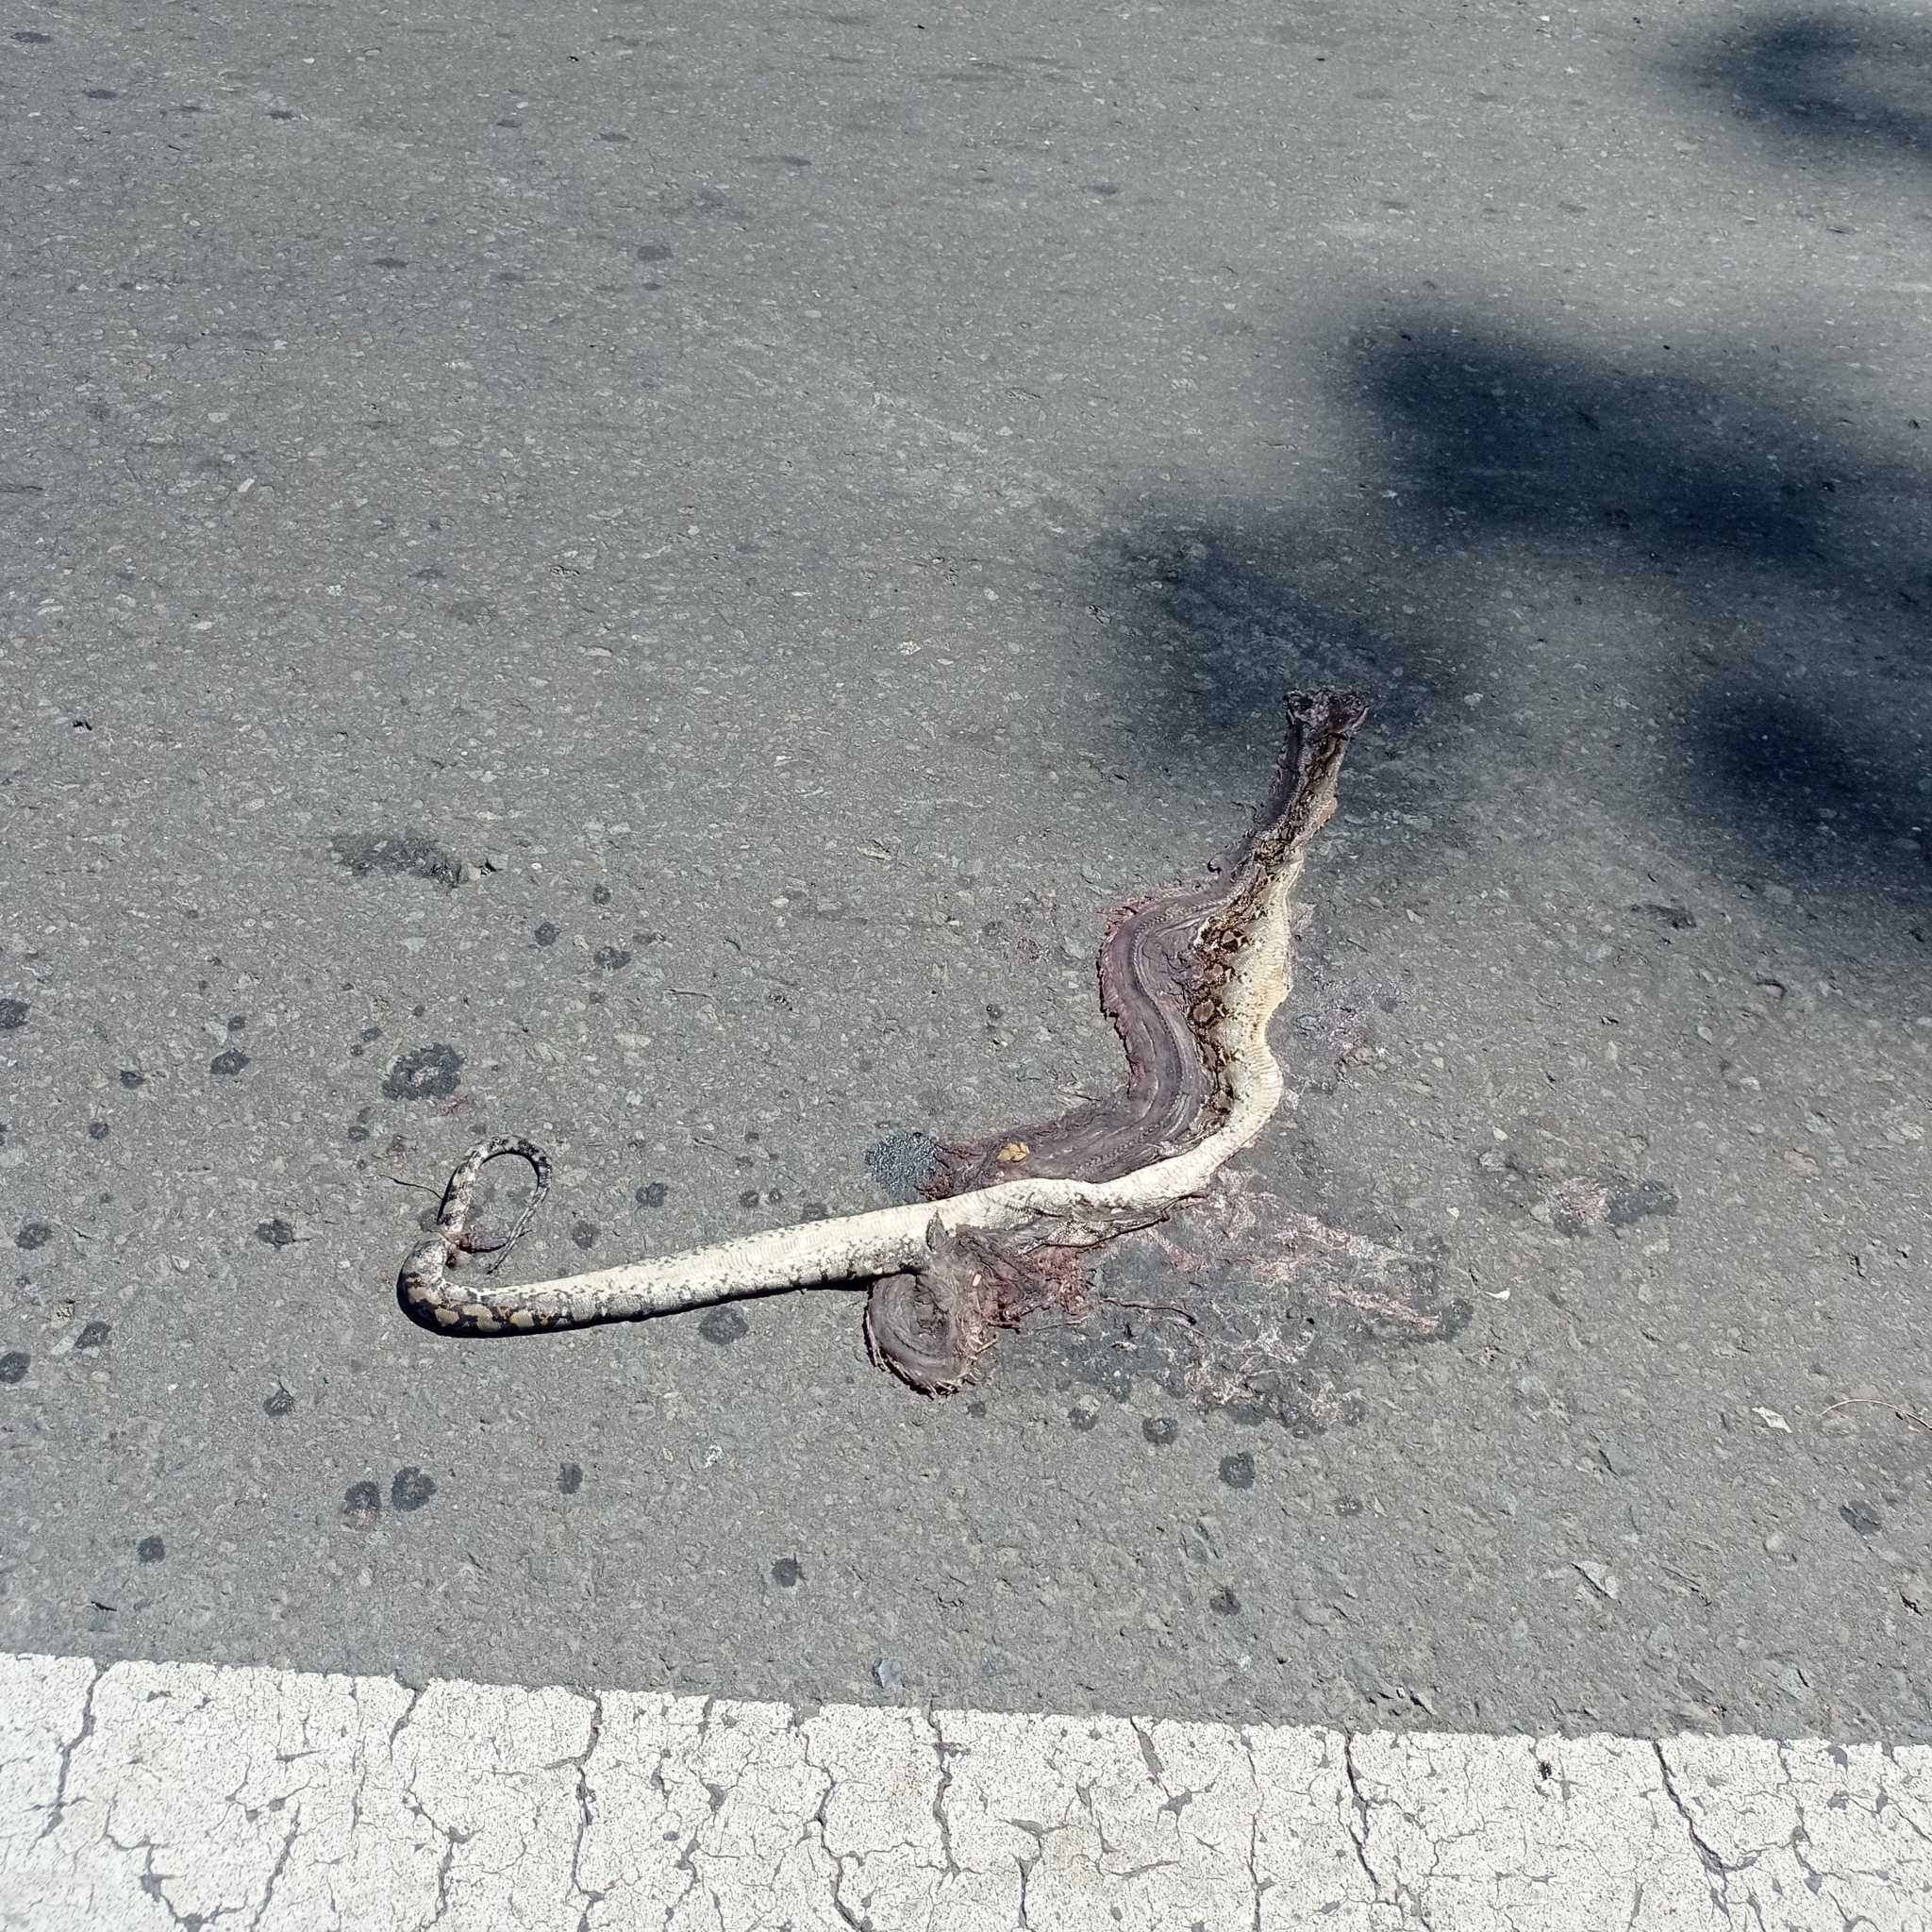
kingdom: Animalia
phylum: Chordata
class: Squamata
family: Pythonidae
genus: Malayopython
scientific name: Malayopython reticulatus
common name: Reticulated python
